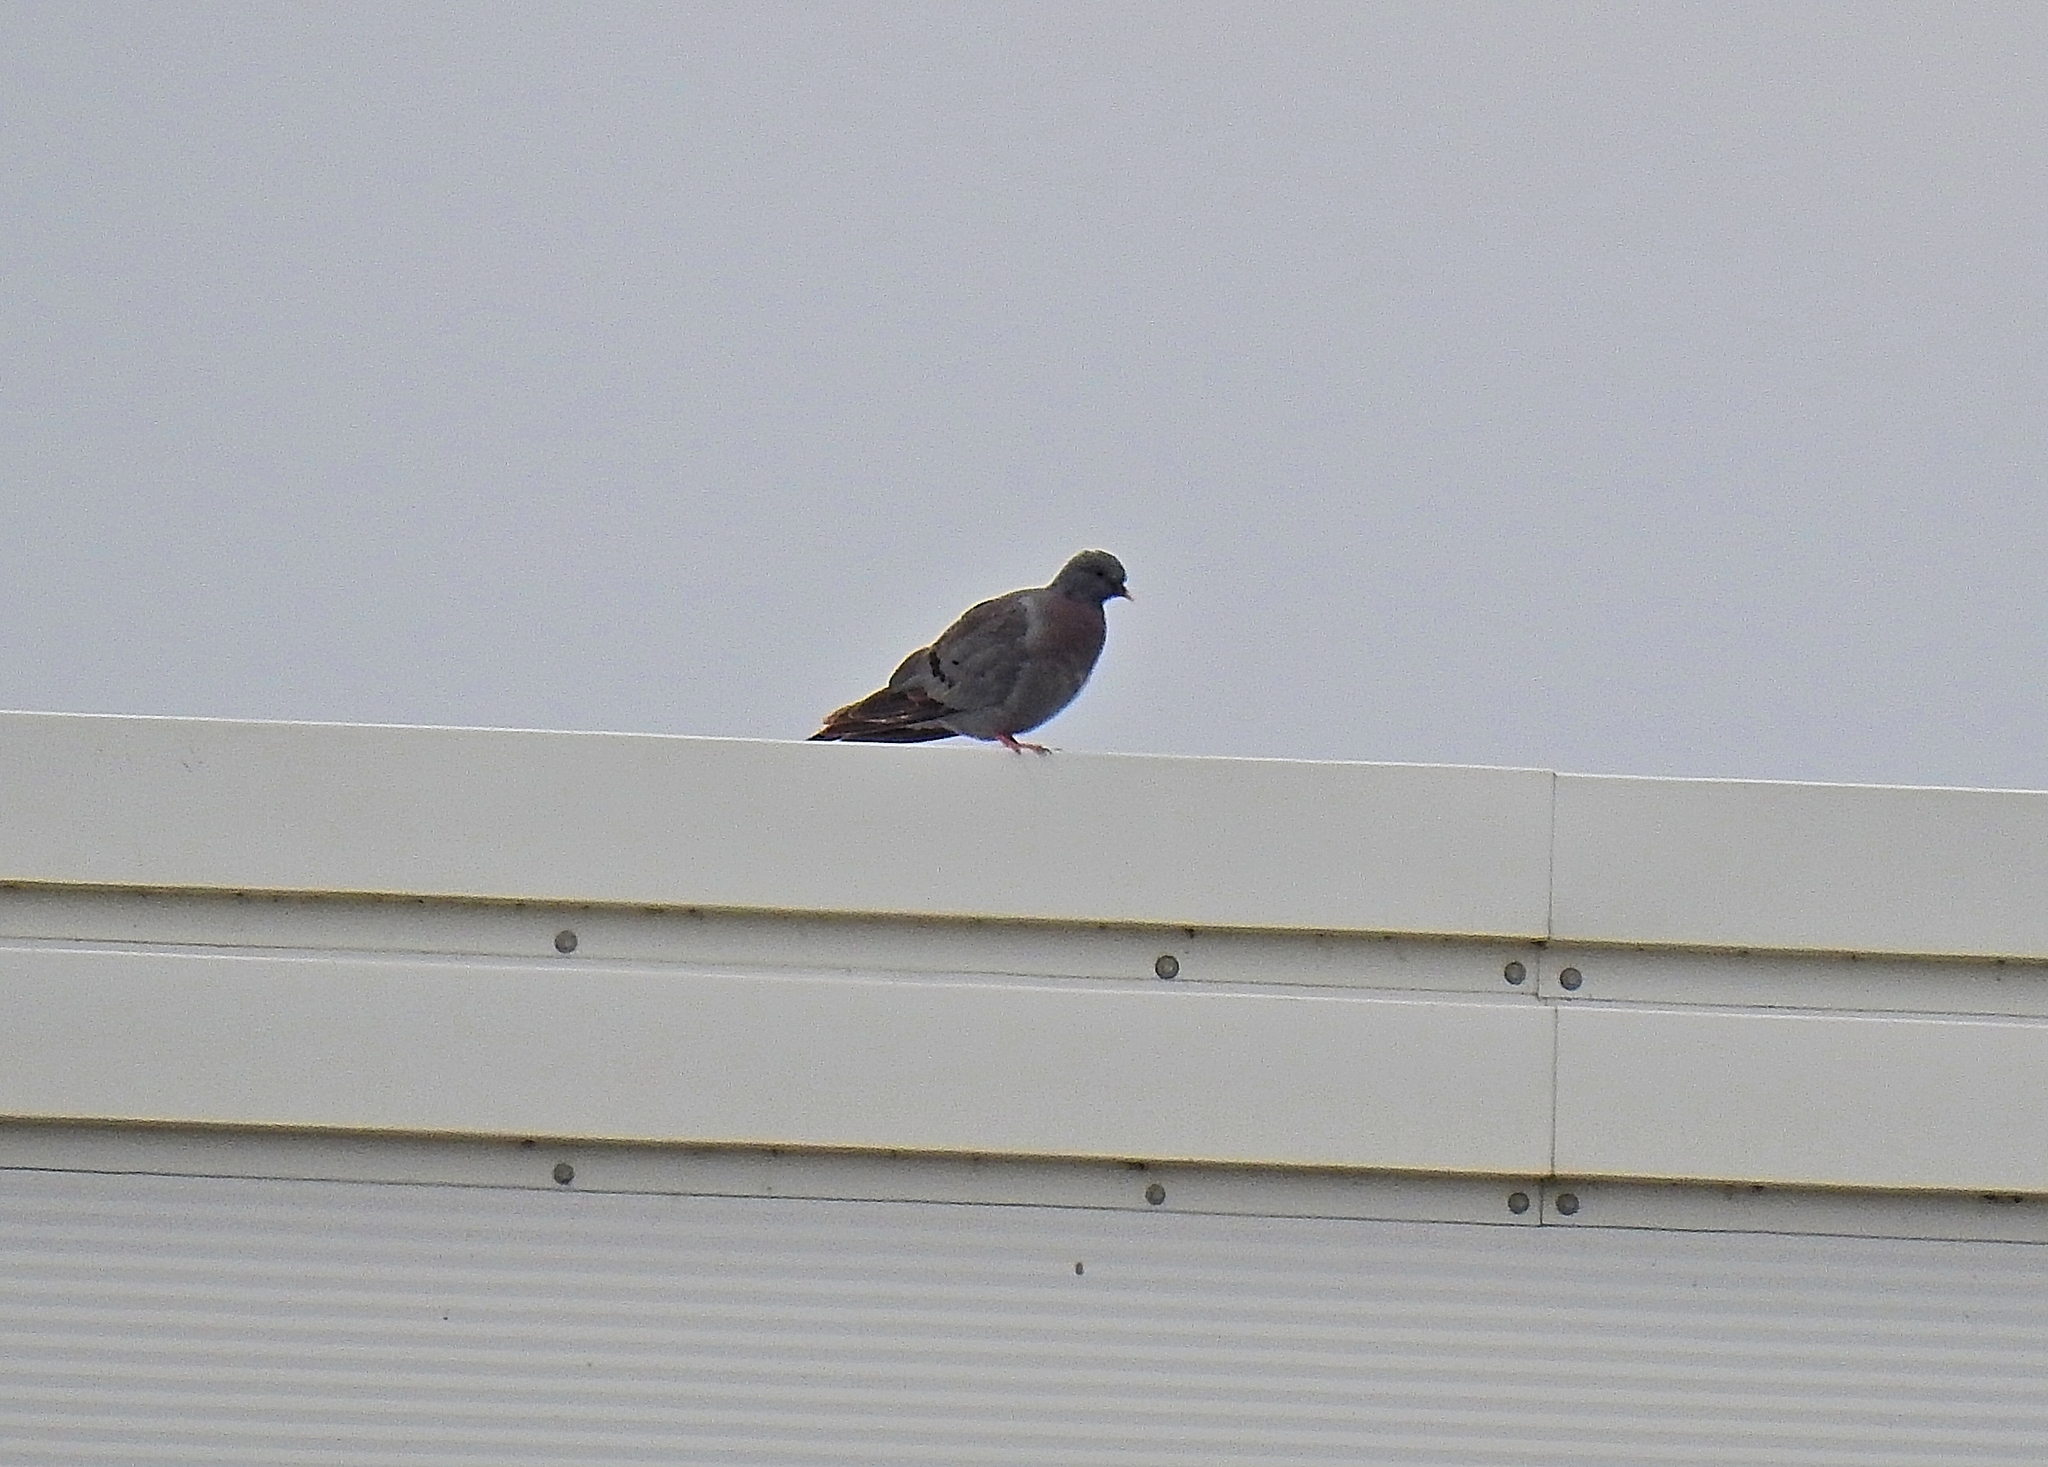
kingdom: Animalia
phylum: Chordata
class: Aves
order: Columbiformes
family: Columbidae
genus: Columba
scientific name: Columba oenas
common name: Stock dove
